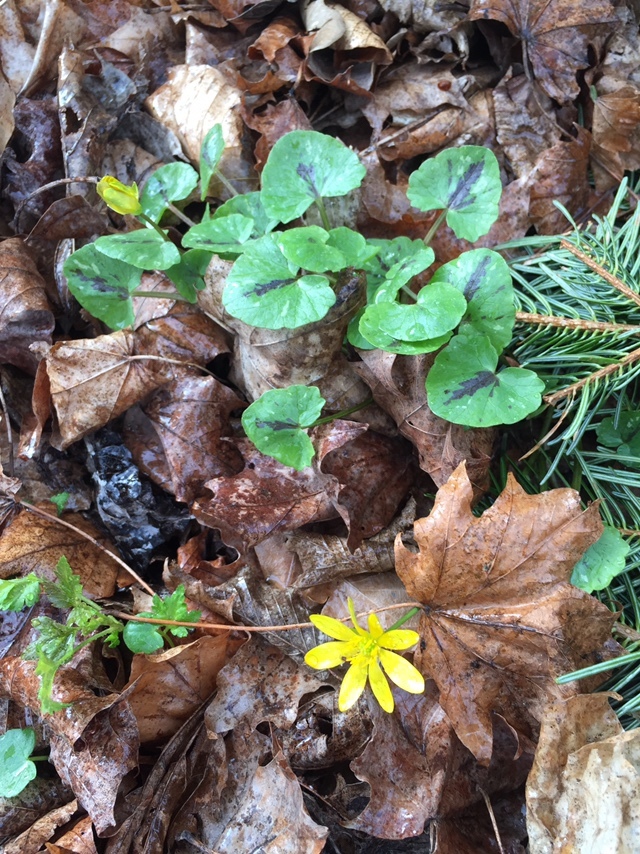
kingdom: Plantae
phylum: Tracheophyta
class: Magnoliopsida
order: Ranunculales
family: Ranunculaceae
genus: Ficaria
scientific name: Ficaria verna
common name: Lesser celandine
